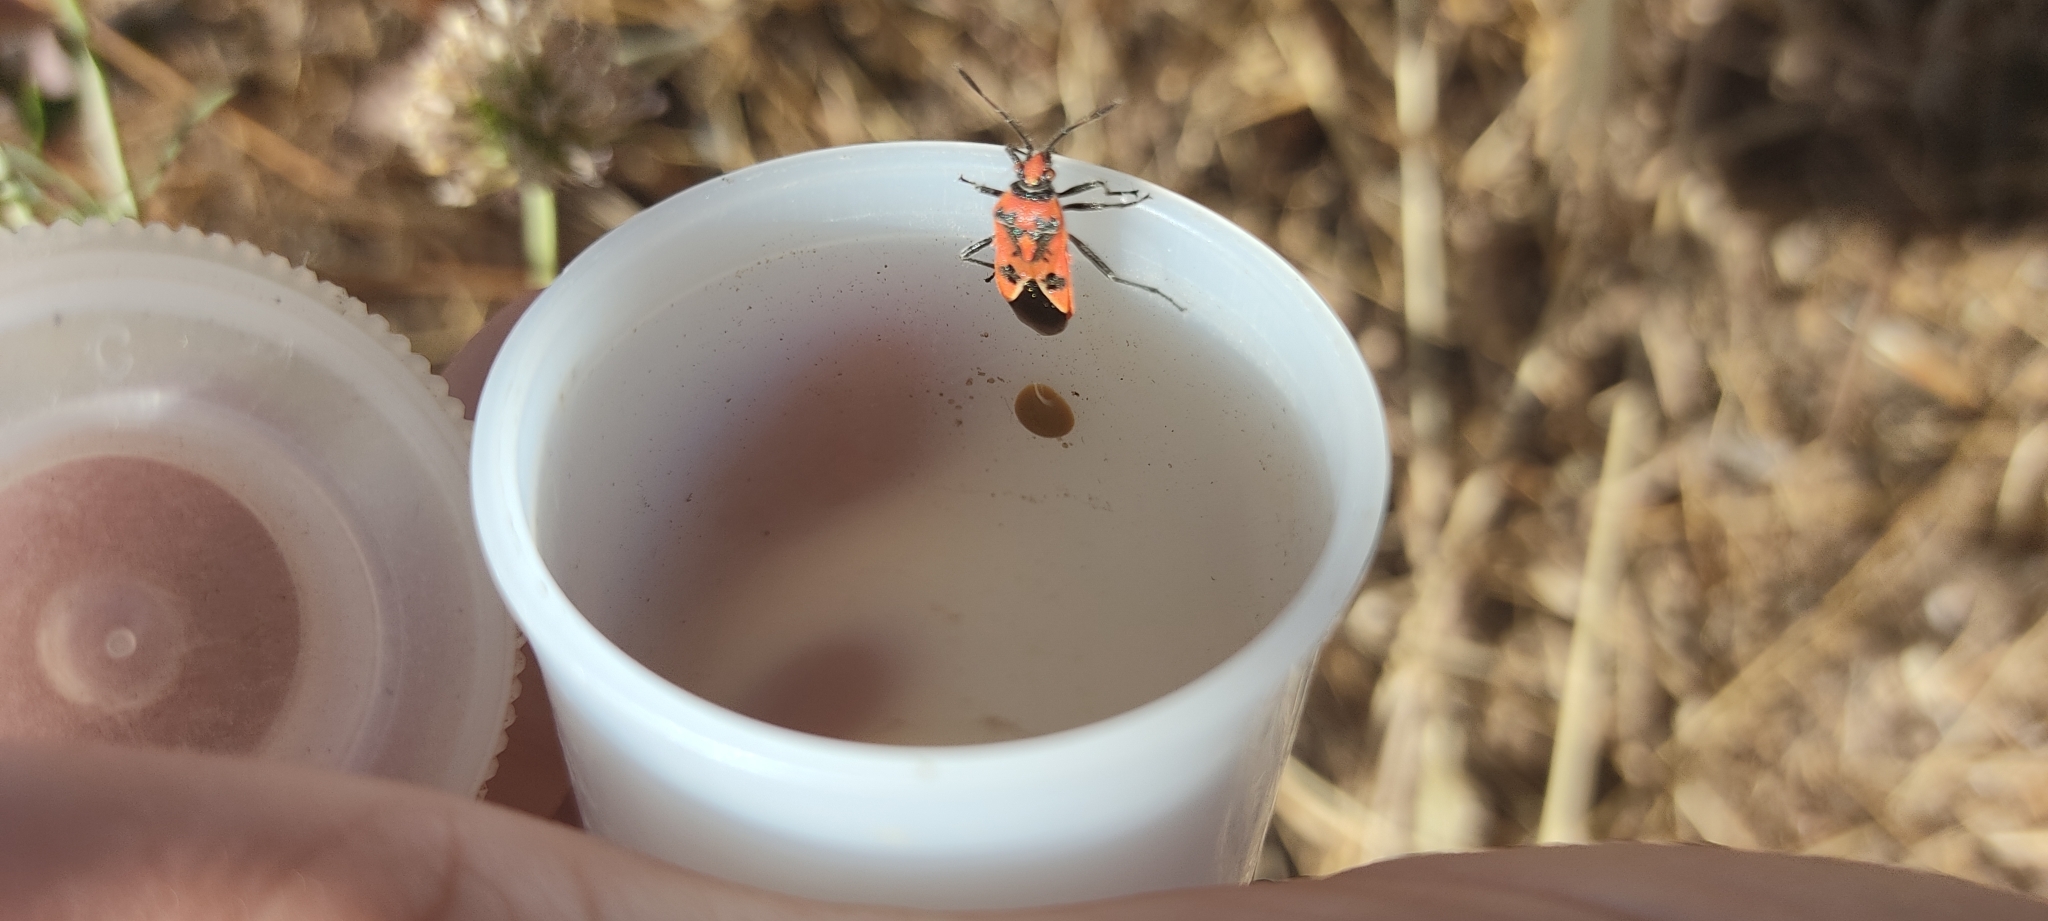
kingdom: Animalia
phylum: Arthropoda
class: Insecta
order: Hemiptera
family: Rhopalidae
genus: Corizus
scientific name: Corizus hyoscyami
